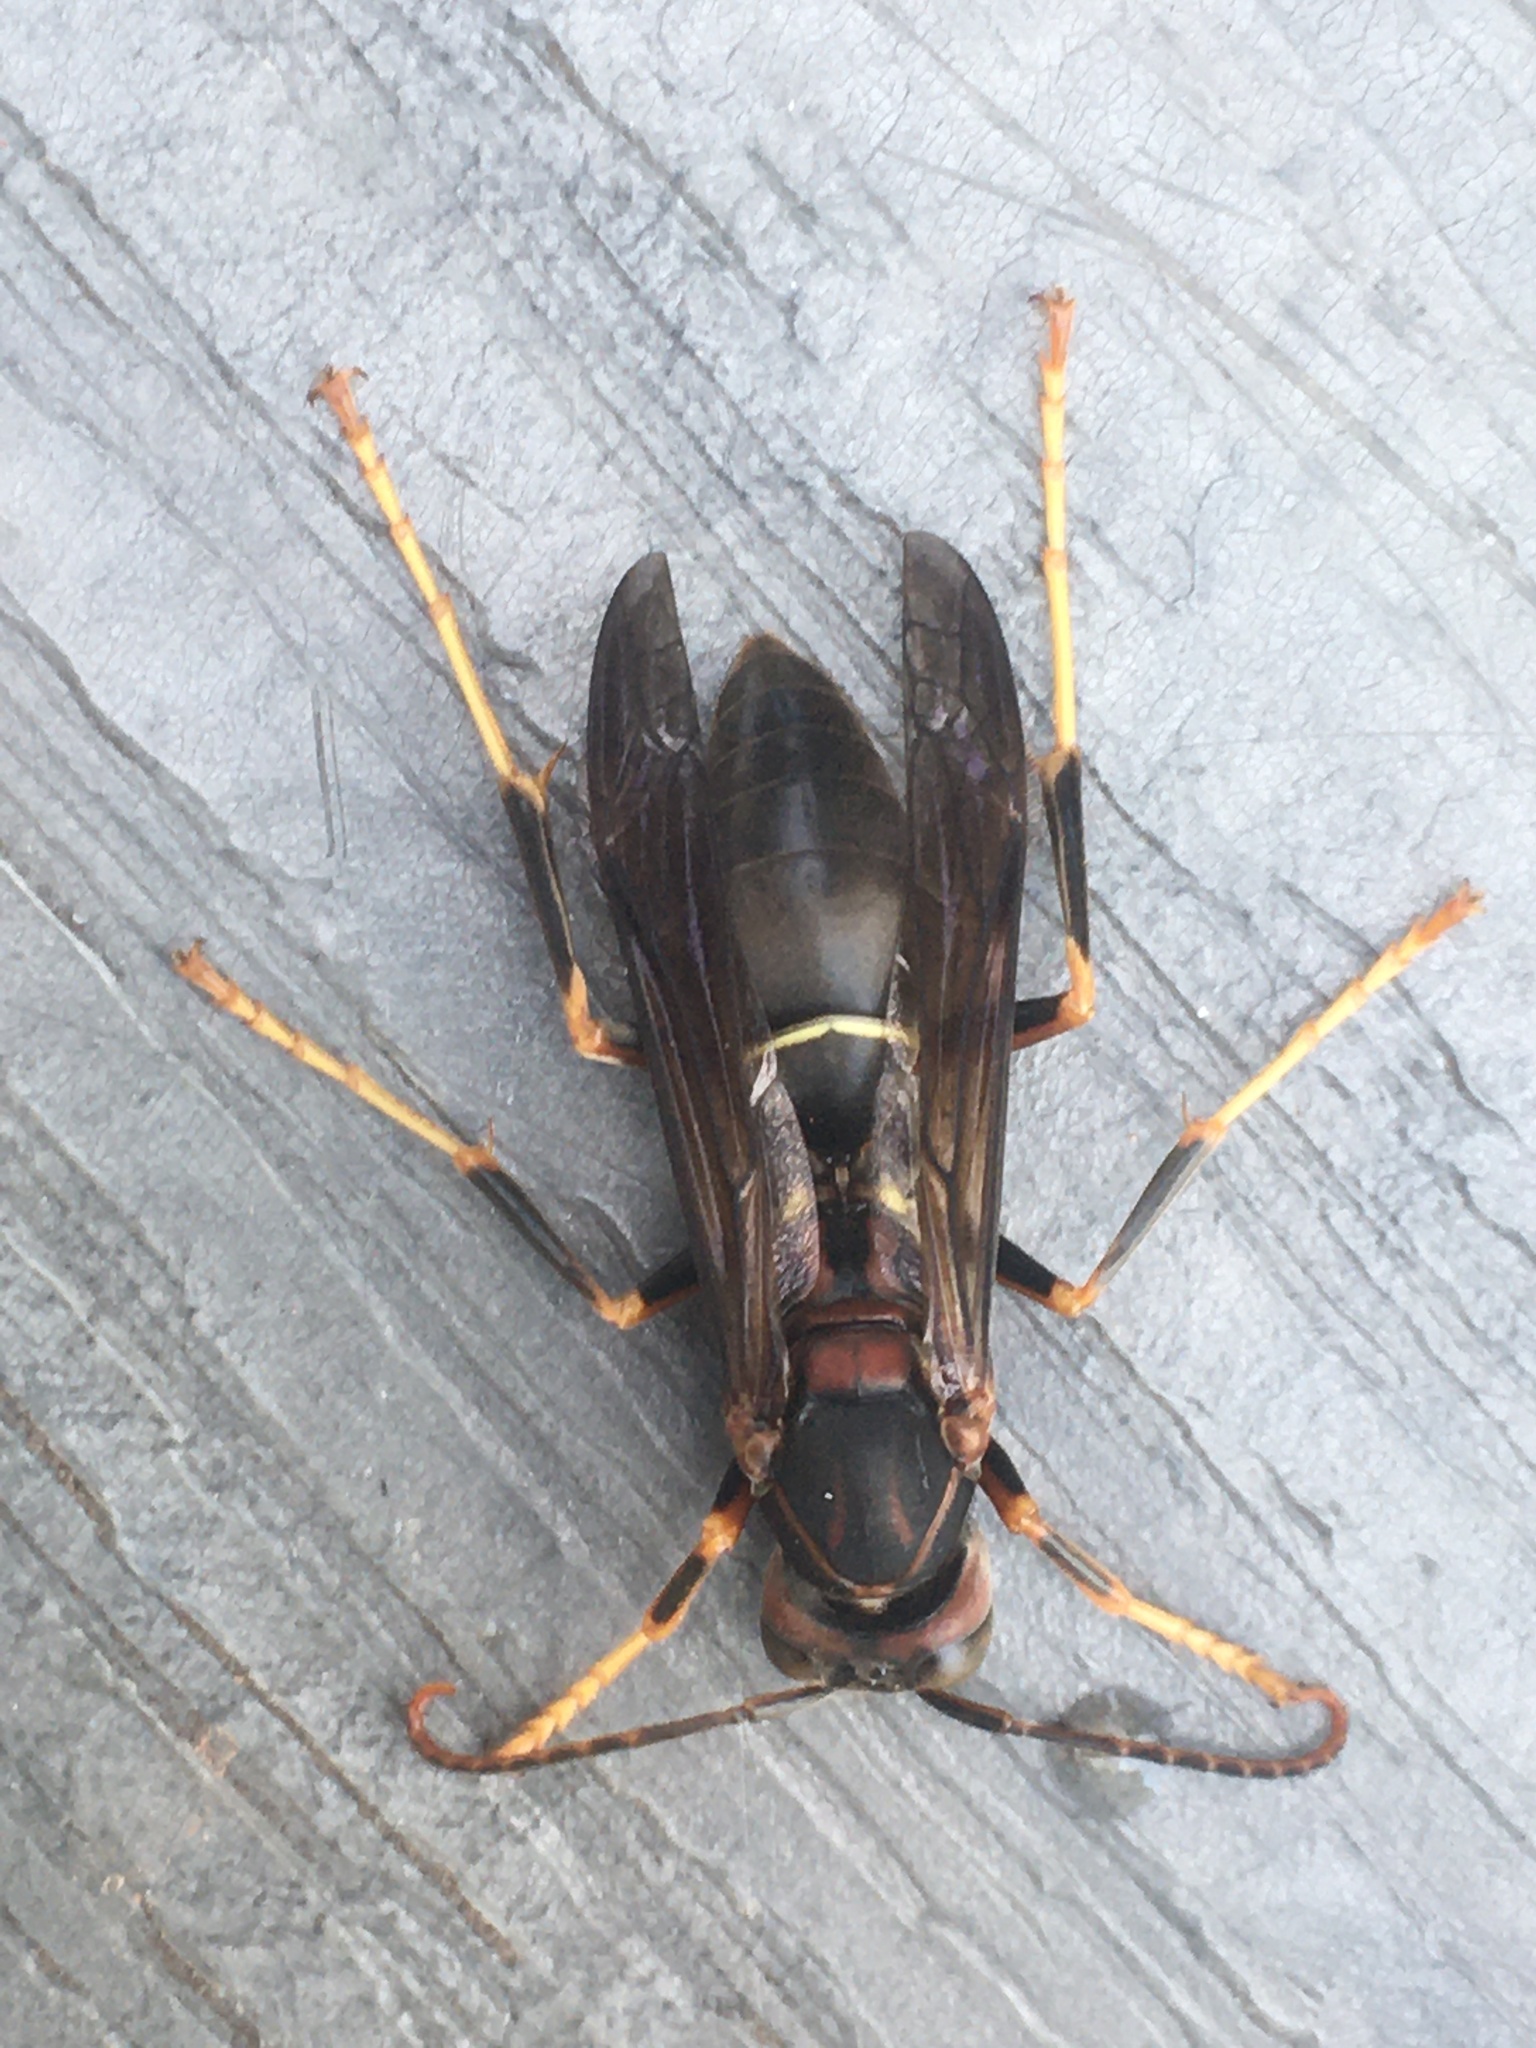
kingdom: Animalia
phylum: Arthropoda
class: Insecta
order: Hymenoptera
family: Eumenidae
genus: Polistes
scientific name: Polistes metricus
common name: Metric paper wasp
